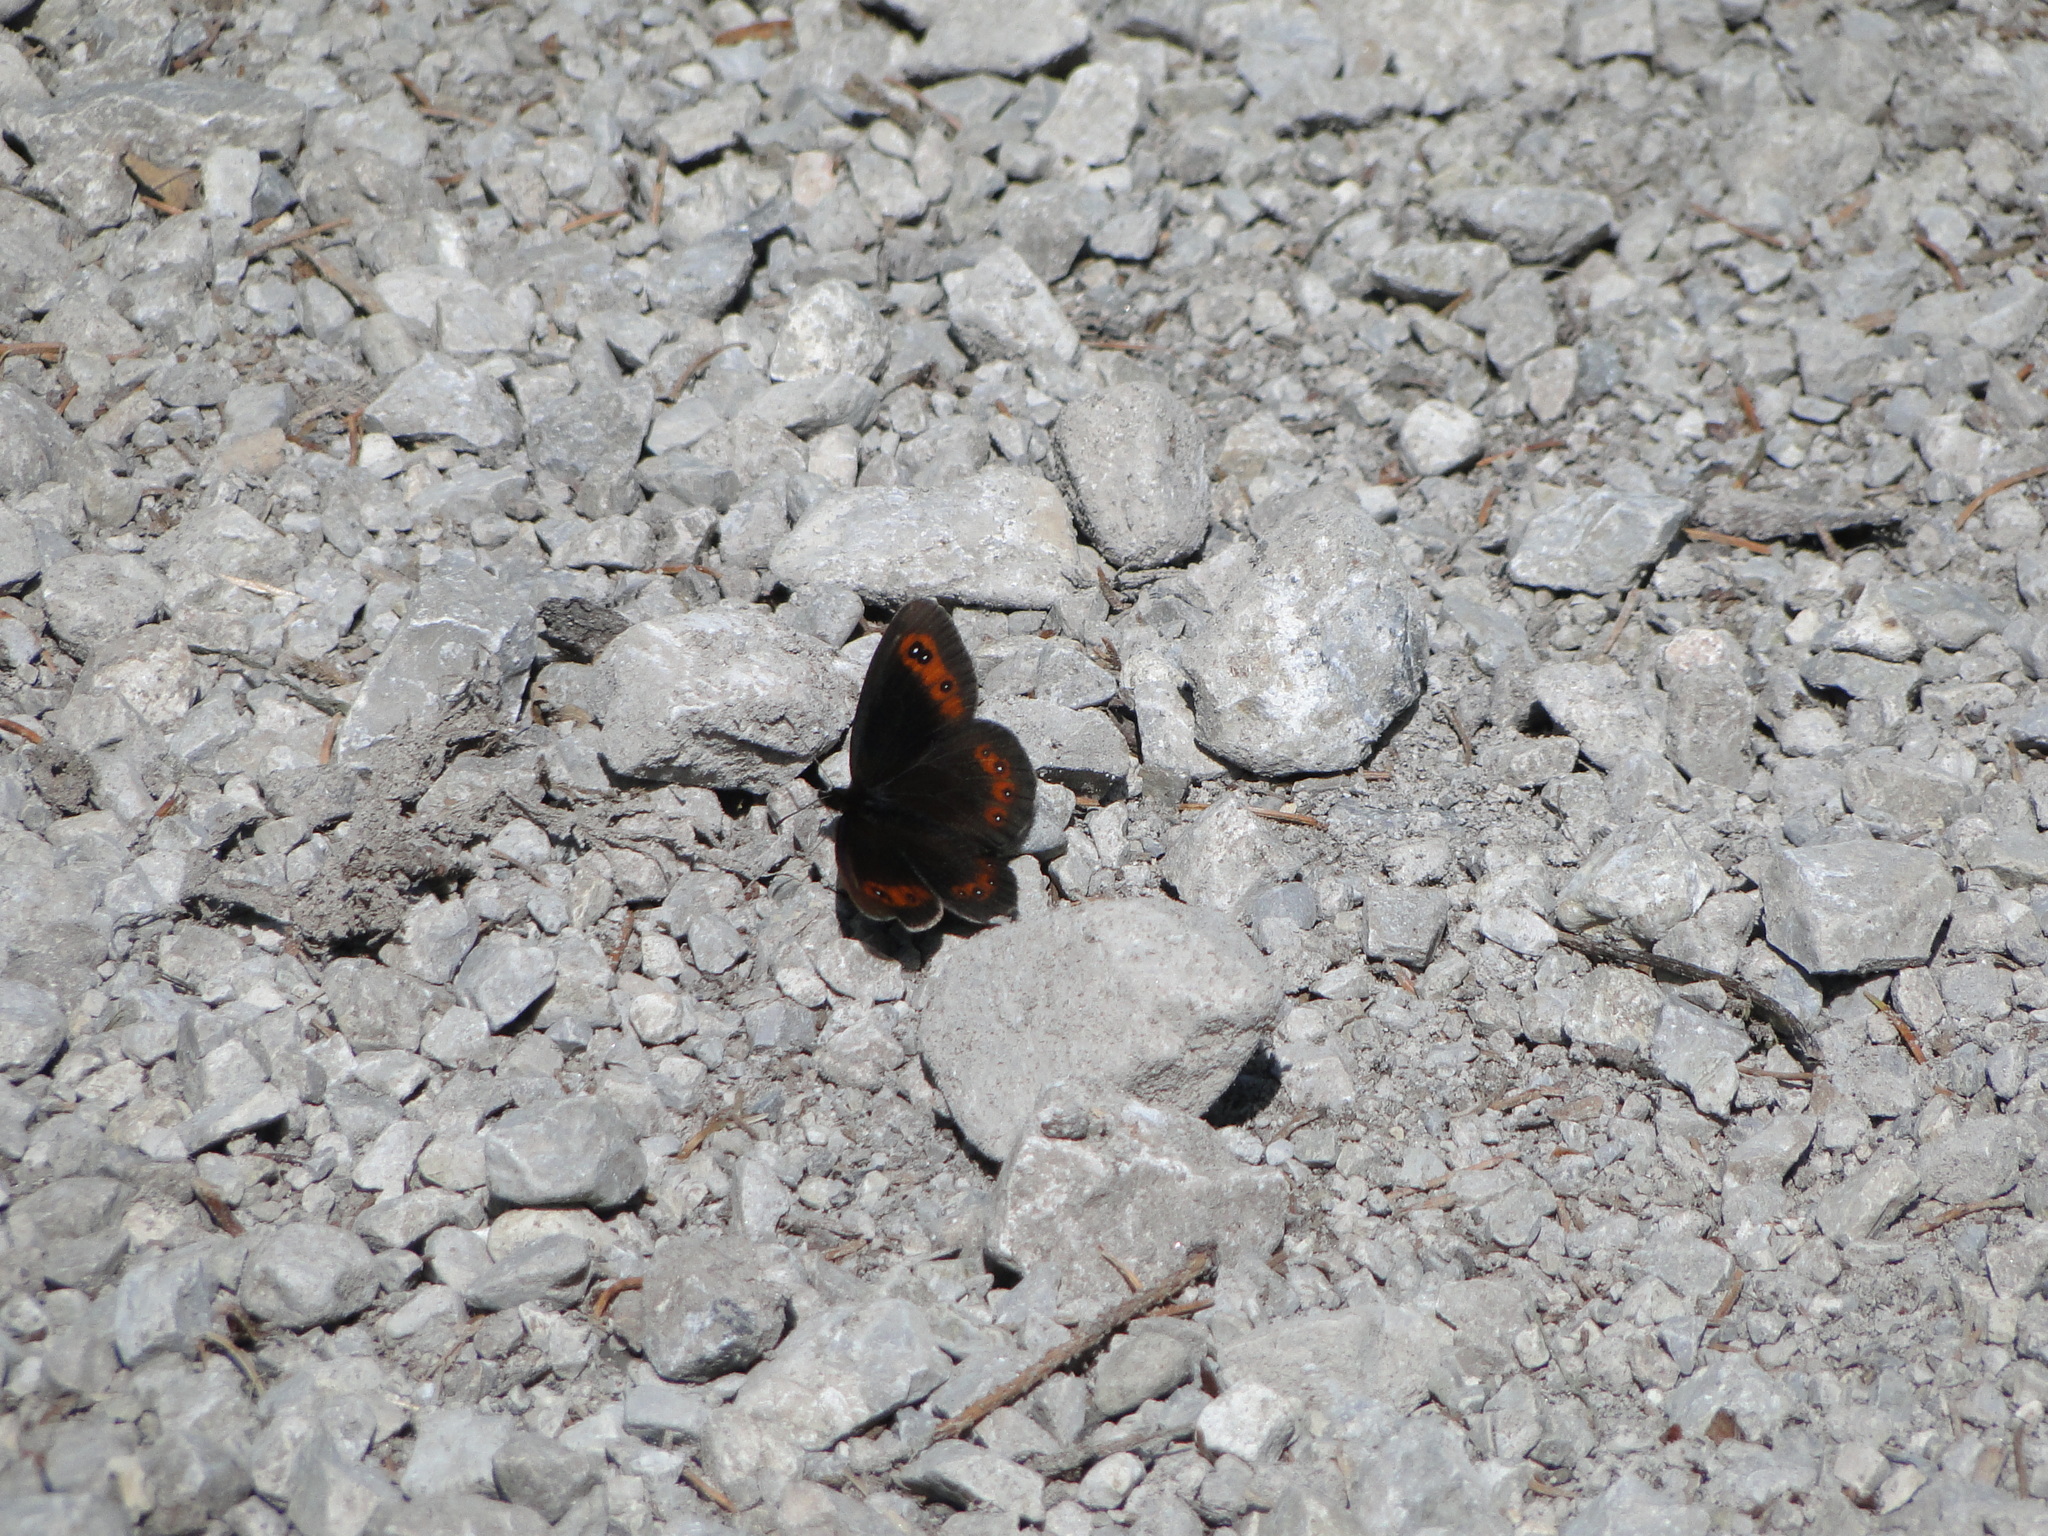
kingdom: Animalia
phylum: Arthropoda
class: Insecta
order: Lepidoptera
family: Nymphalidae
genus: Erebia
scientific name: Erebia aethiops
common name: Scotch argus
